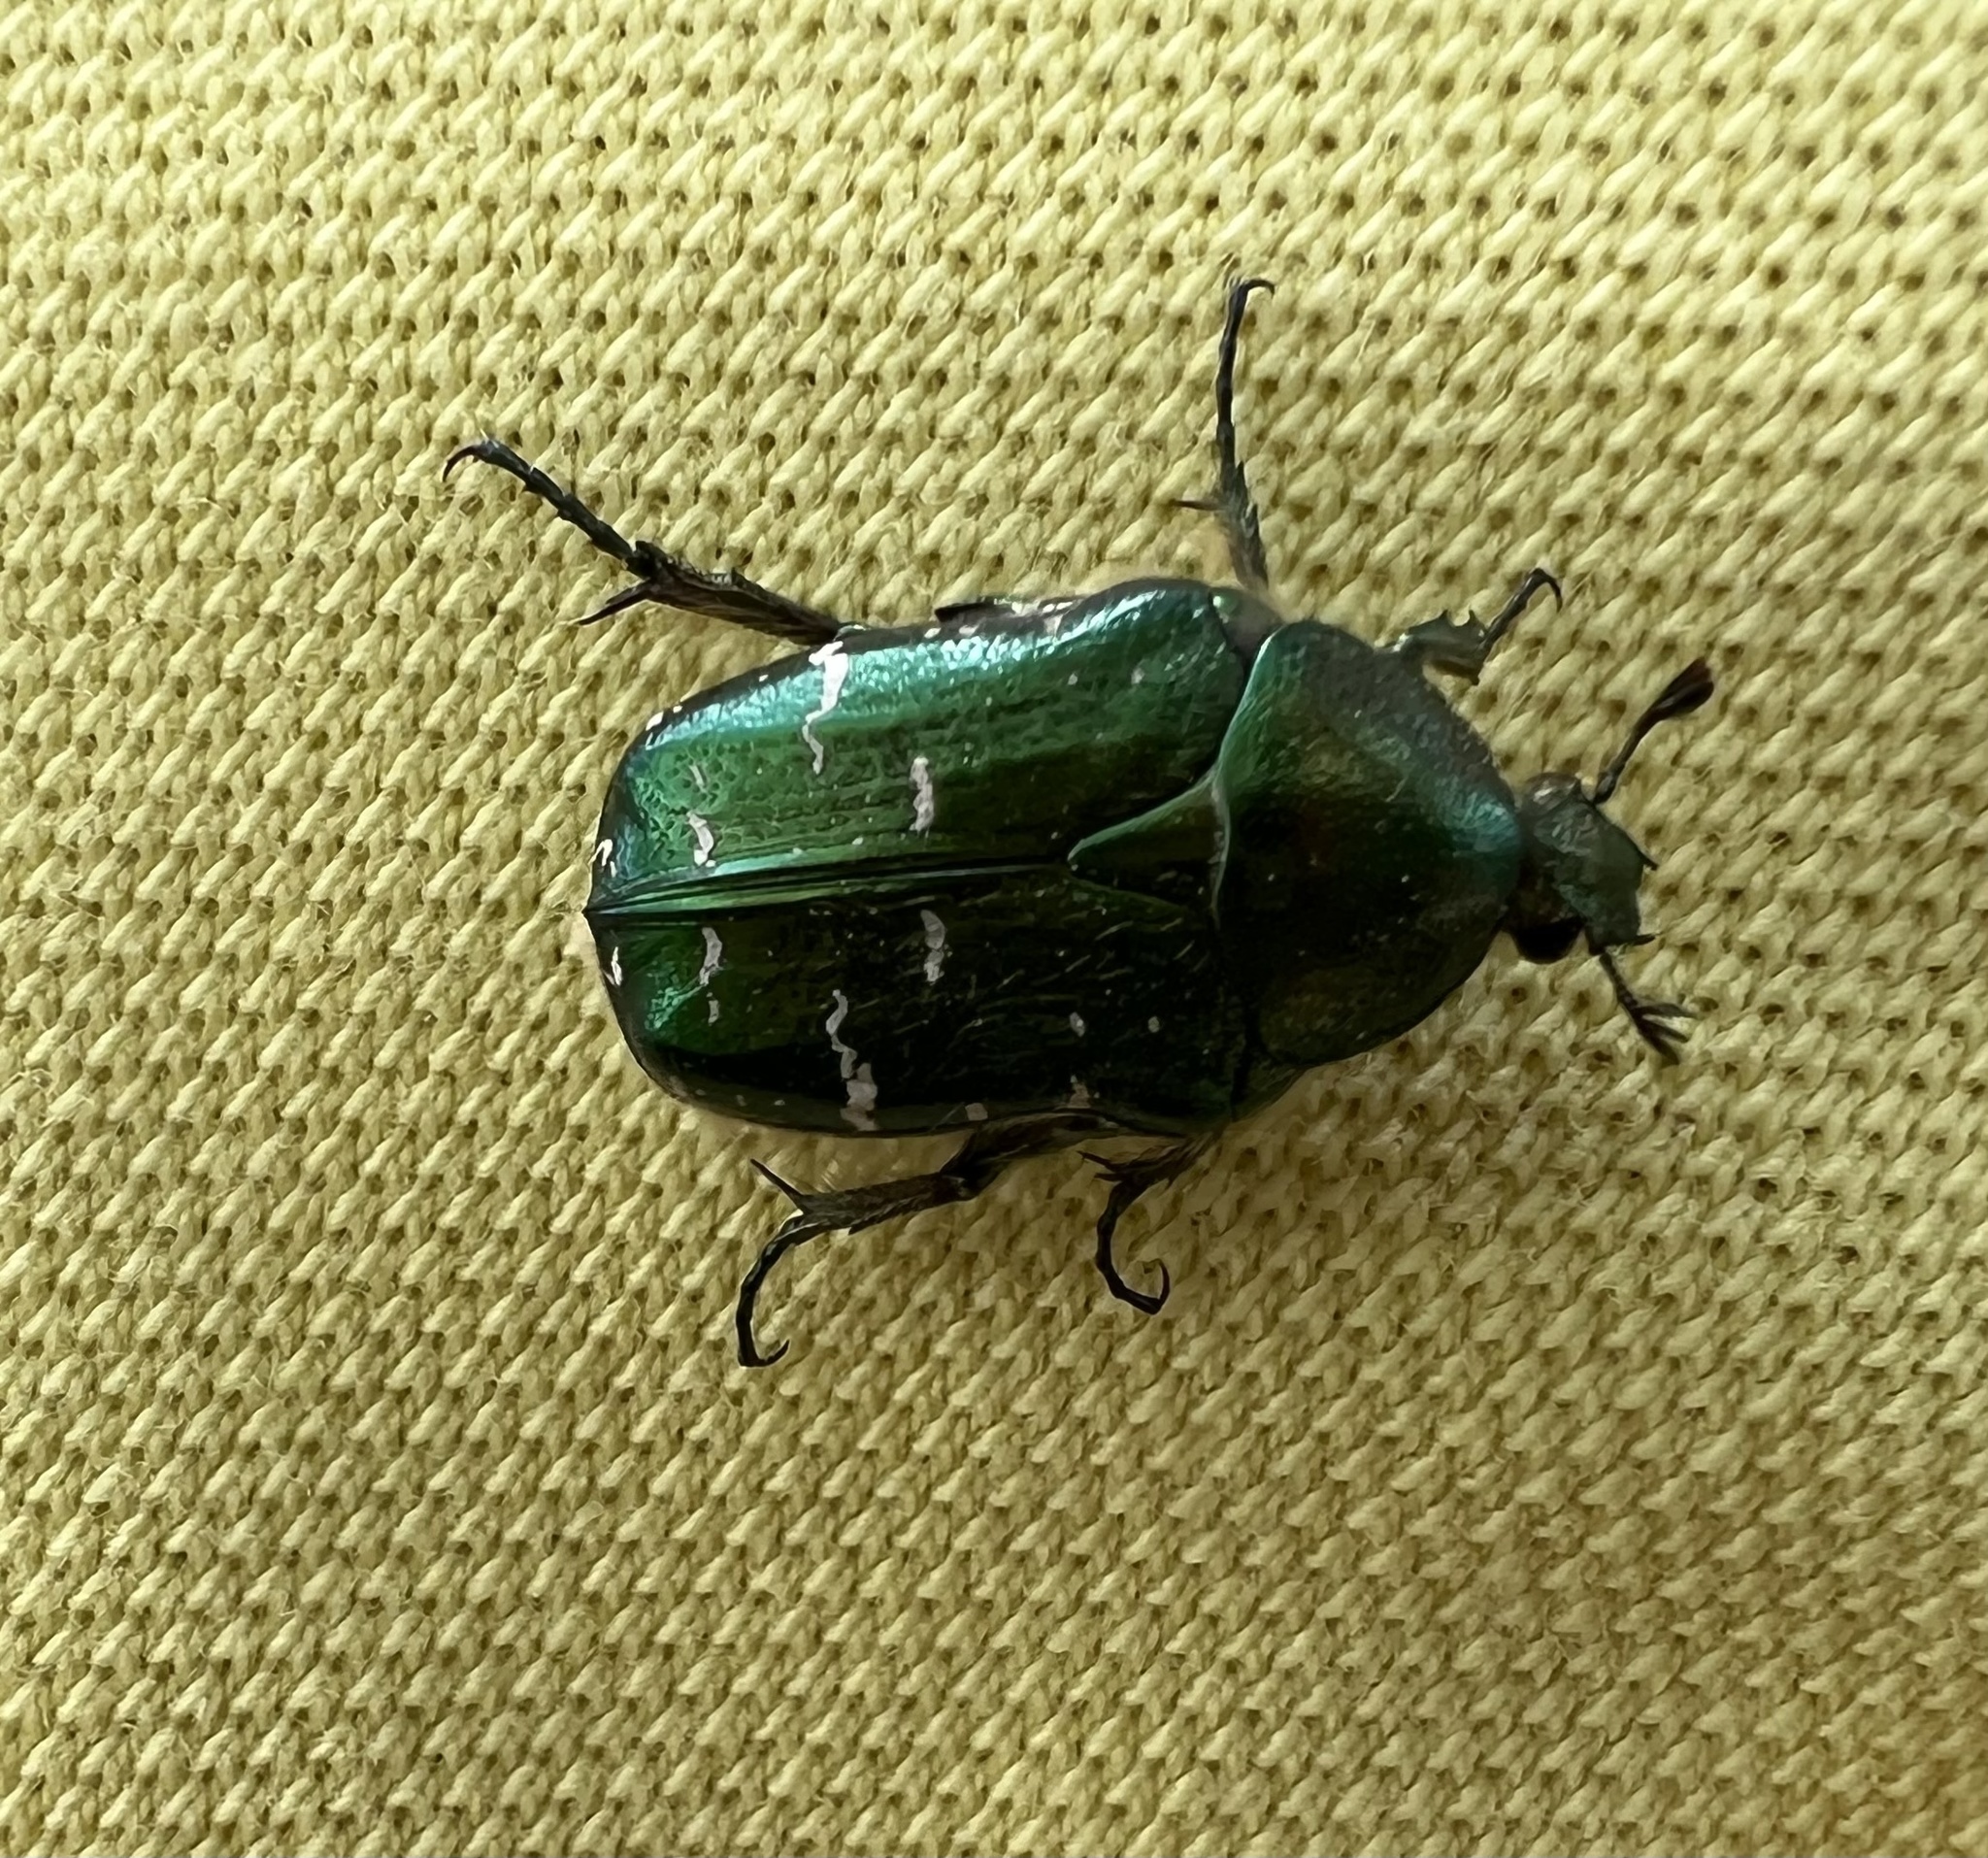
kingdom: Animalia
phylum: Arthropoda
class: Insecta
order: Coleoptera
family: Scarabaeidae
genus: Cetonia
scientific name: Cetonia aurata
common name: Rose chafer
